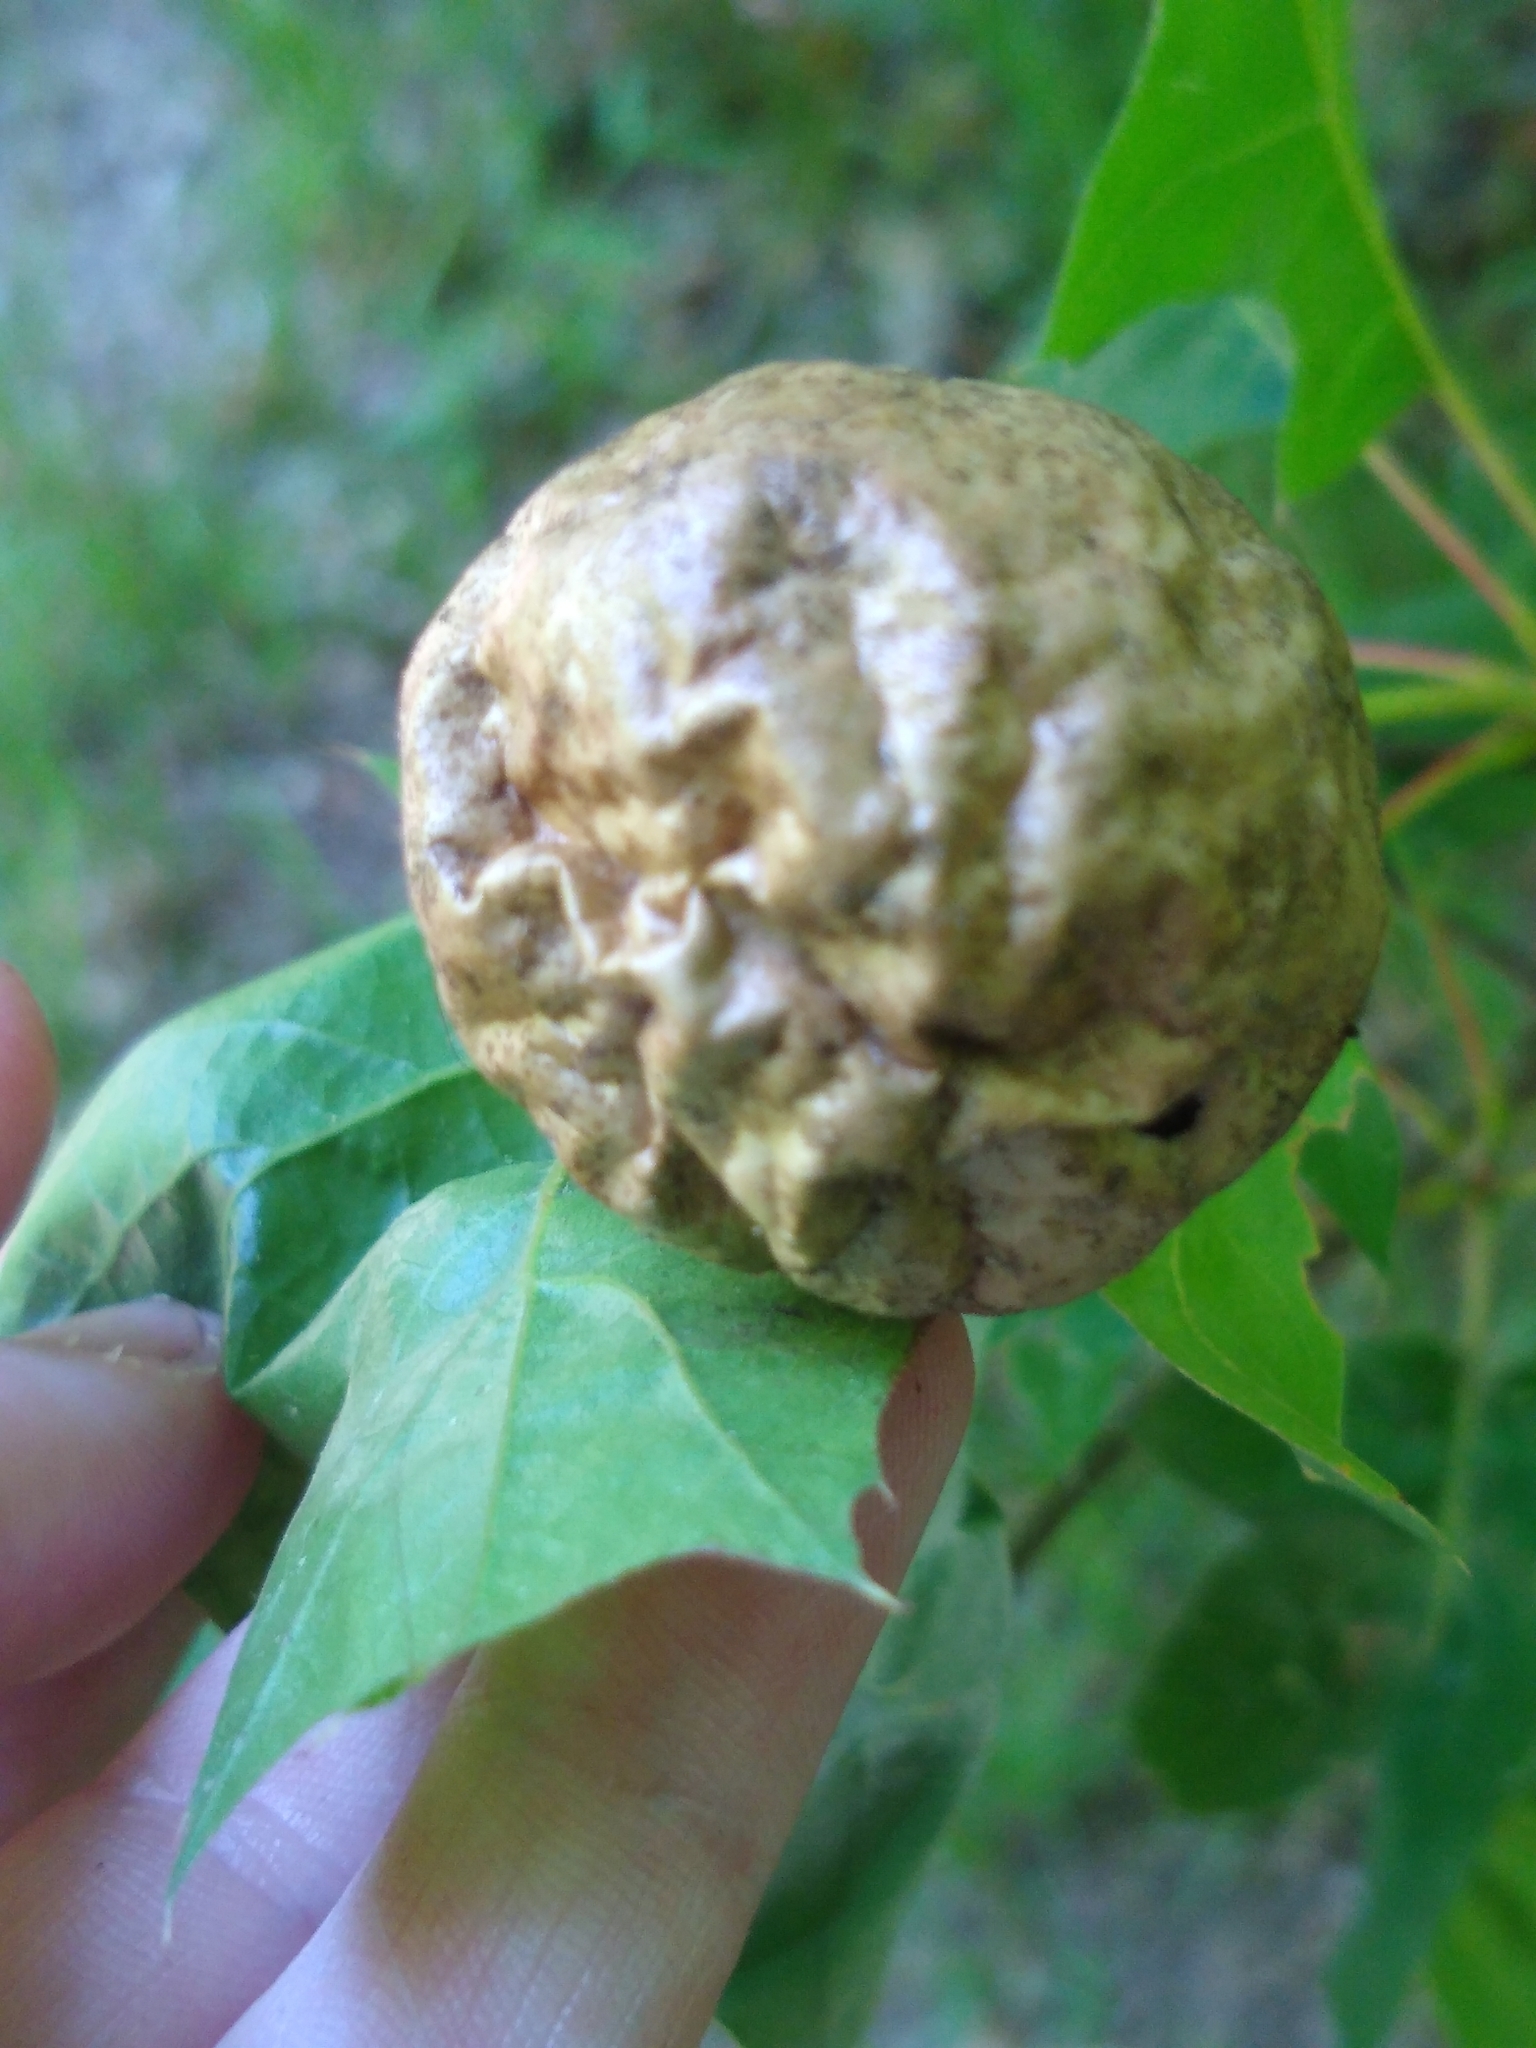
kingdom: Animalia
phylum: Arthropoda
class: Insecta
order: Hymenoptera
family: Cynipidae
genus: Amphibolips
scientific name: Amphibolips
